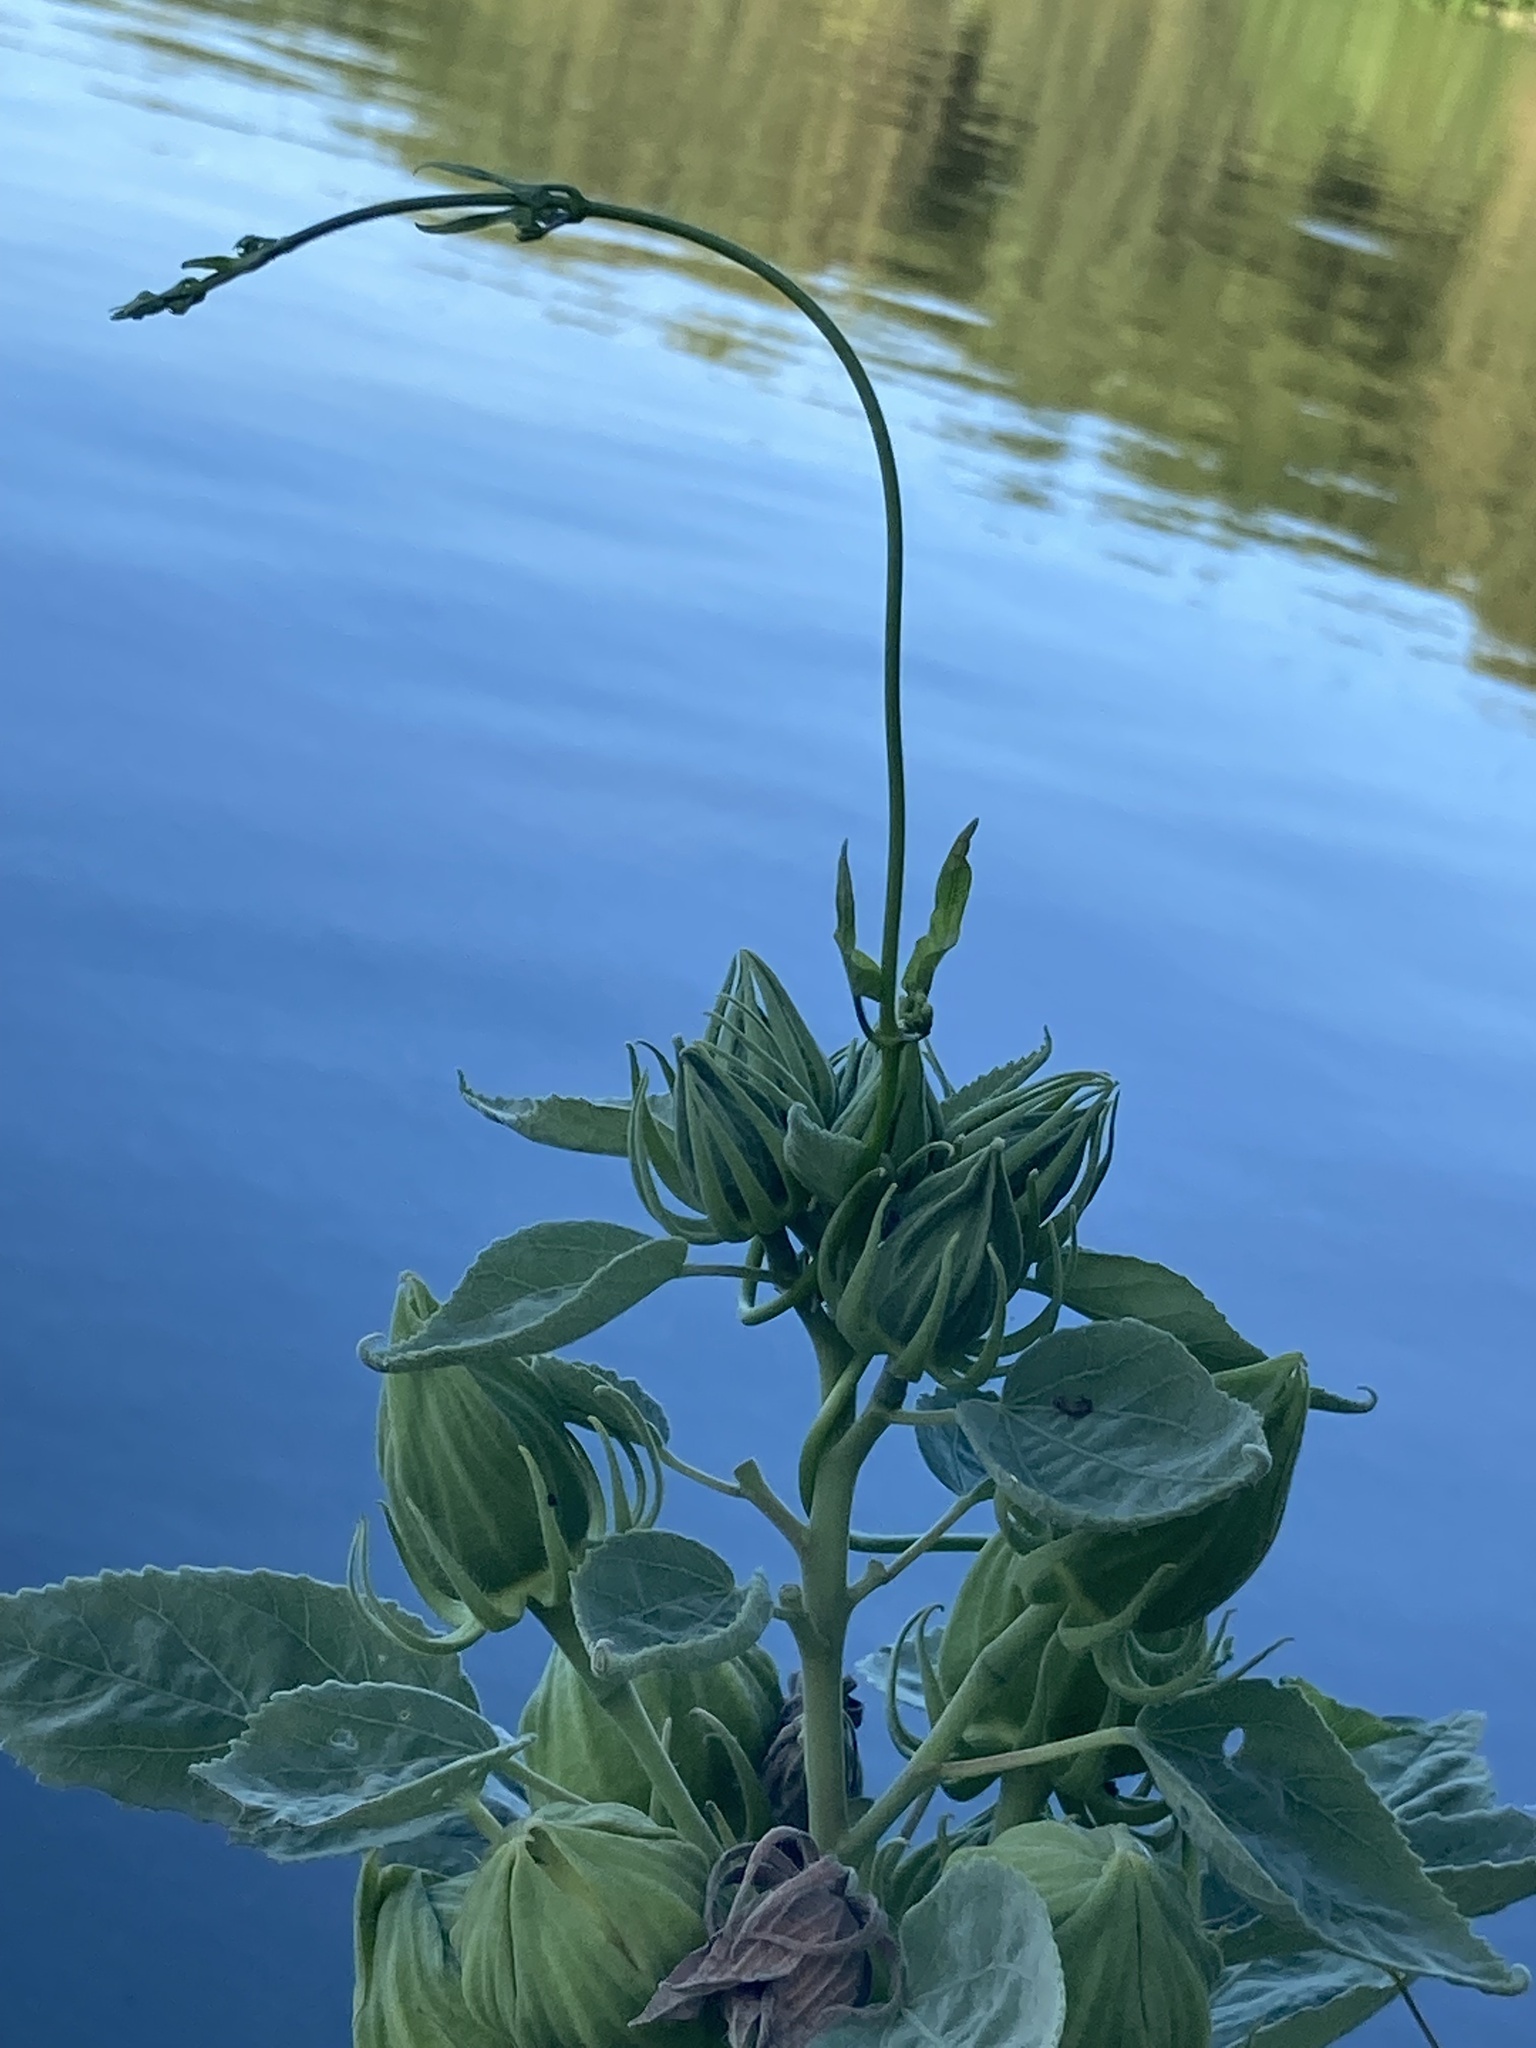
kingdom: Plantae
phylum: Tracheophyta
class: Magnoliopsida
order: Malvales
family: Malvaceae
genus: Hibiscus
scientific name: Hibiscus moscheutos
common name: Common rose-mallow
